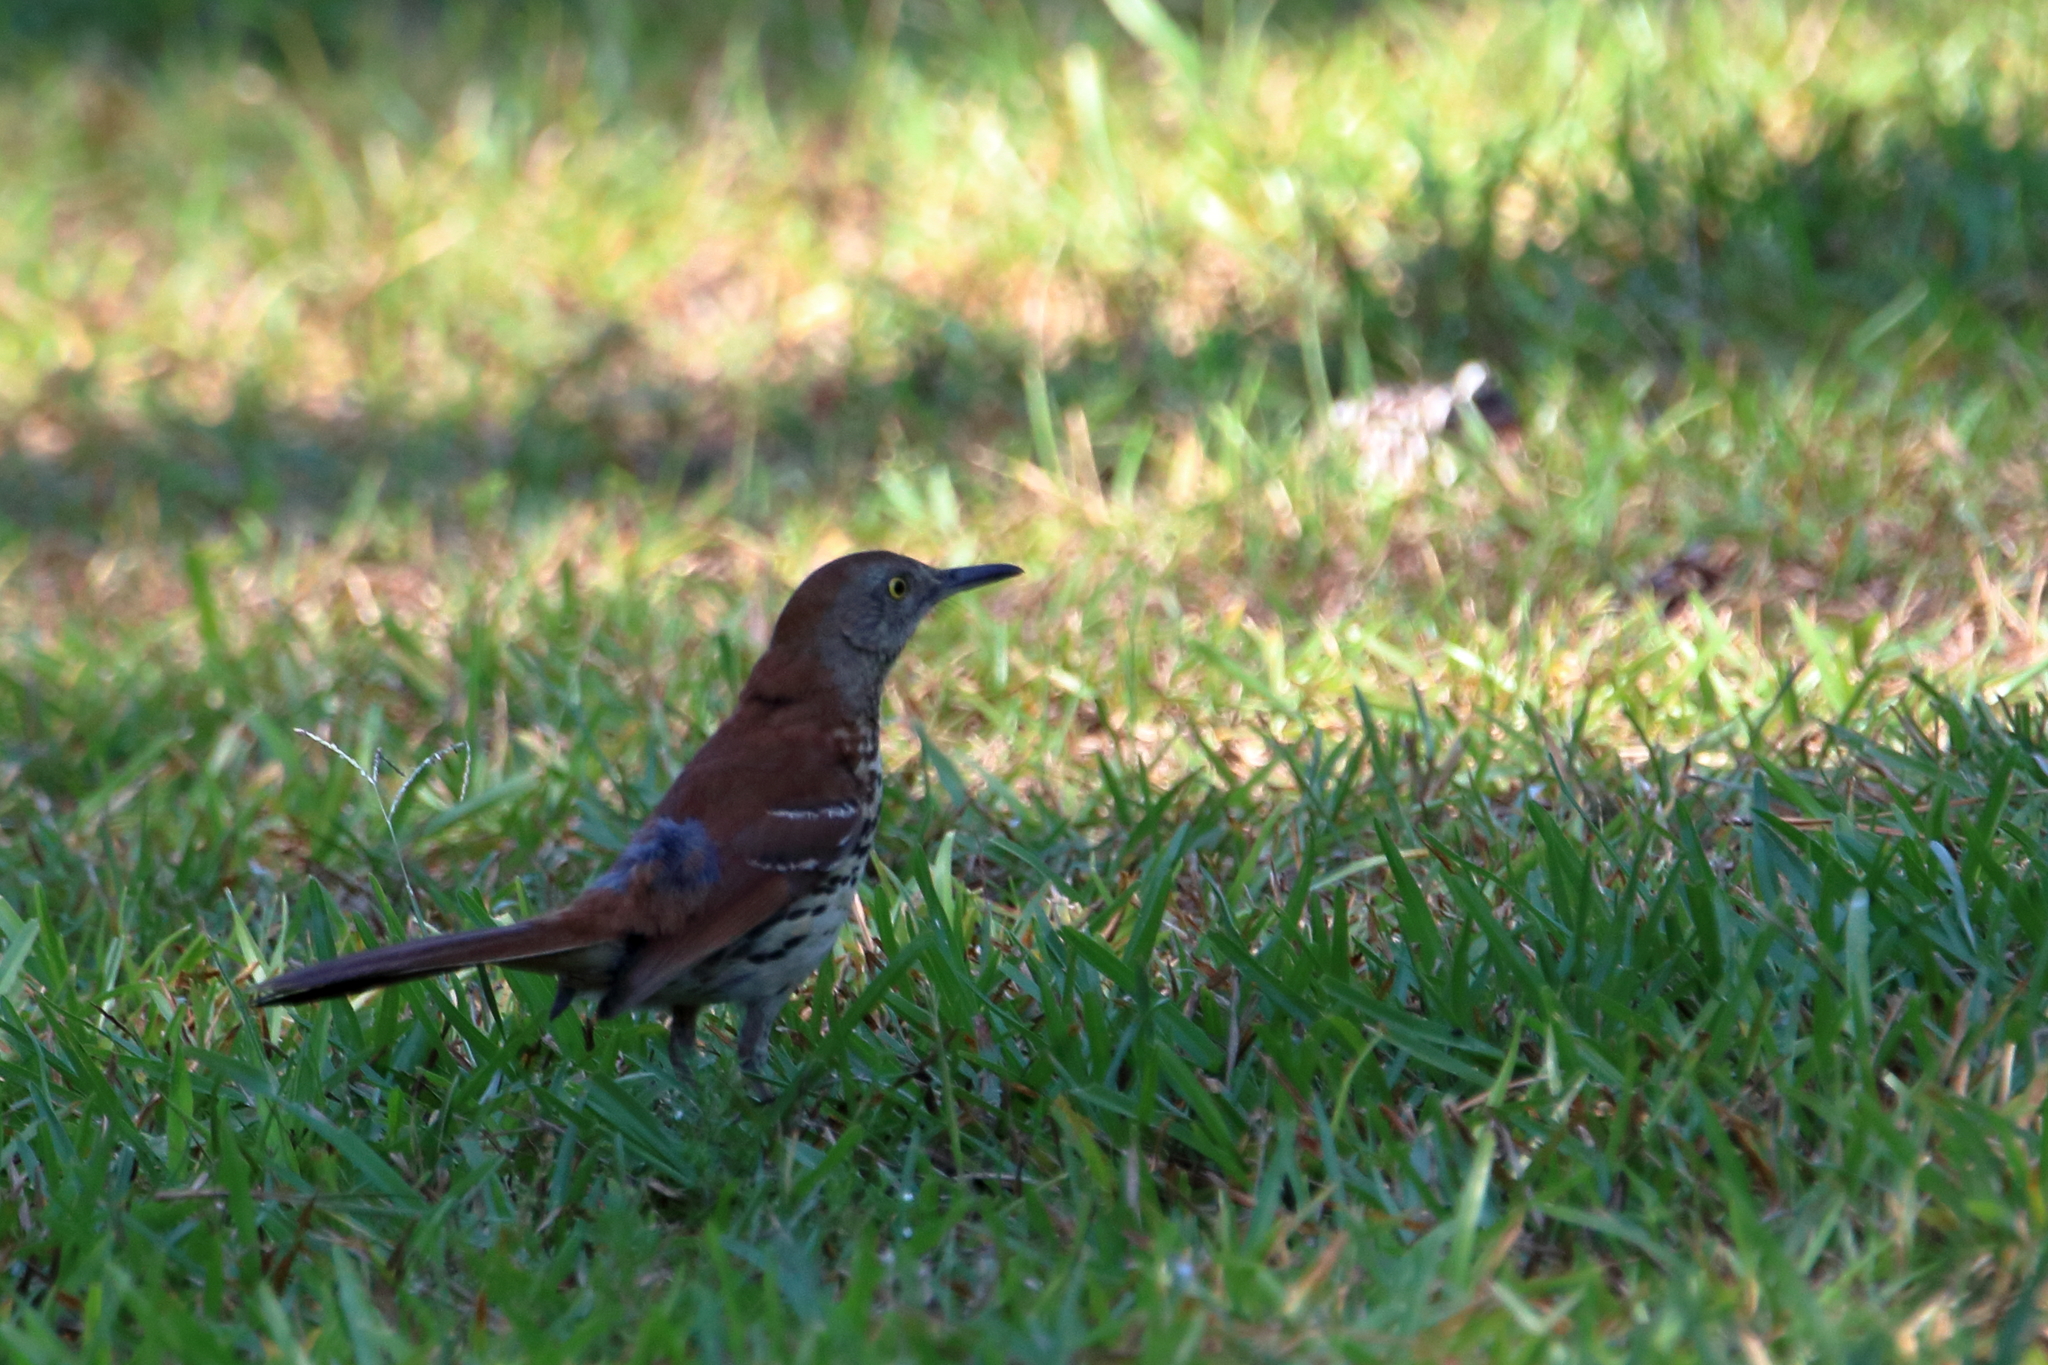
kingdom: Animalia
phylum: Chordata
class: Aves
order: Passeriformes
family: Mimidae
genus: Toxostoma
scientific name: Toxostoma rufum
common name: Brown thrasher
